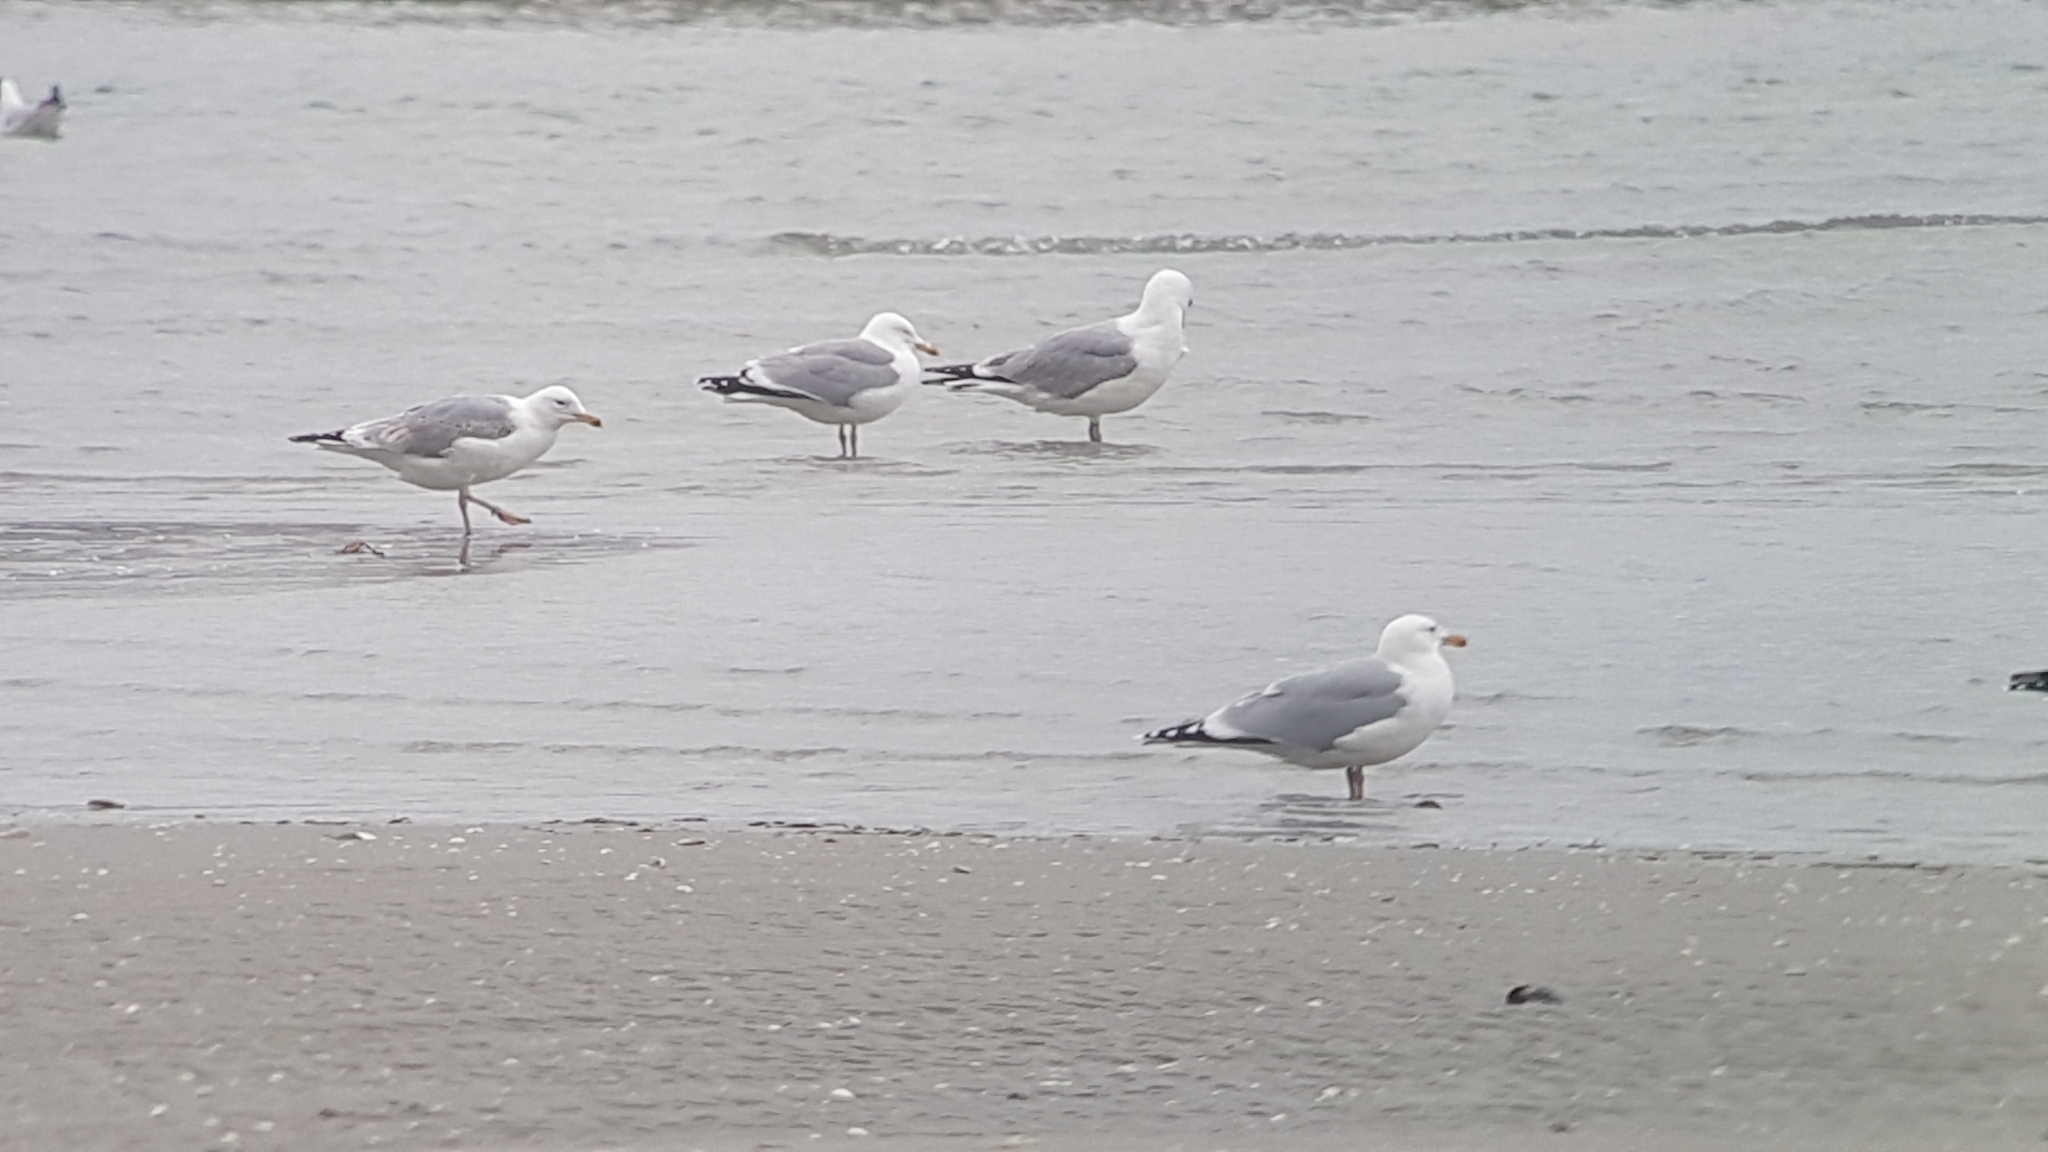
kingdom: Animalia
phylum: Chordata
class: Aves
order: Charadriiformes
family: Laridae
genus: Larus
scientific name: Larus argentatus
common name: Herring gull
